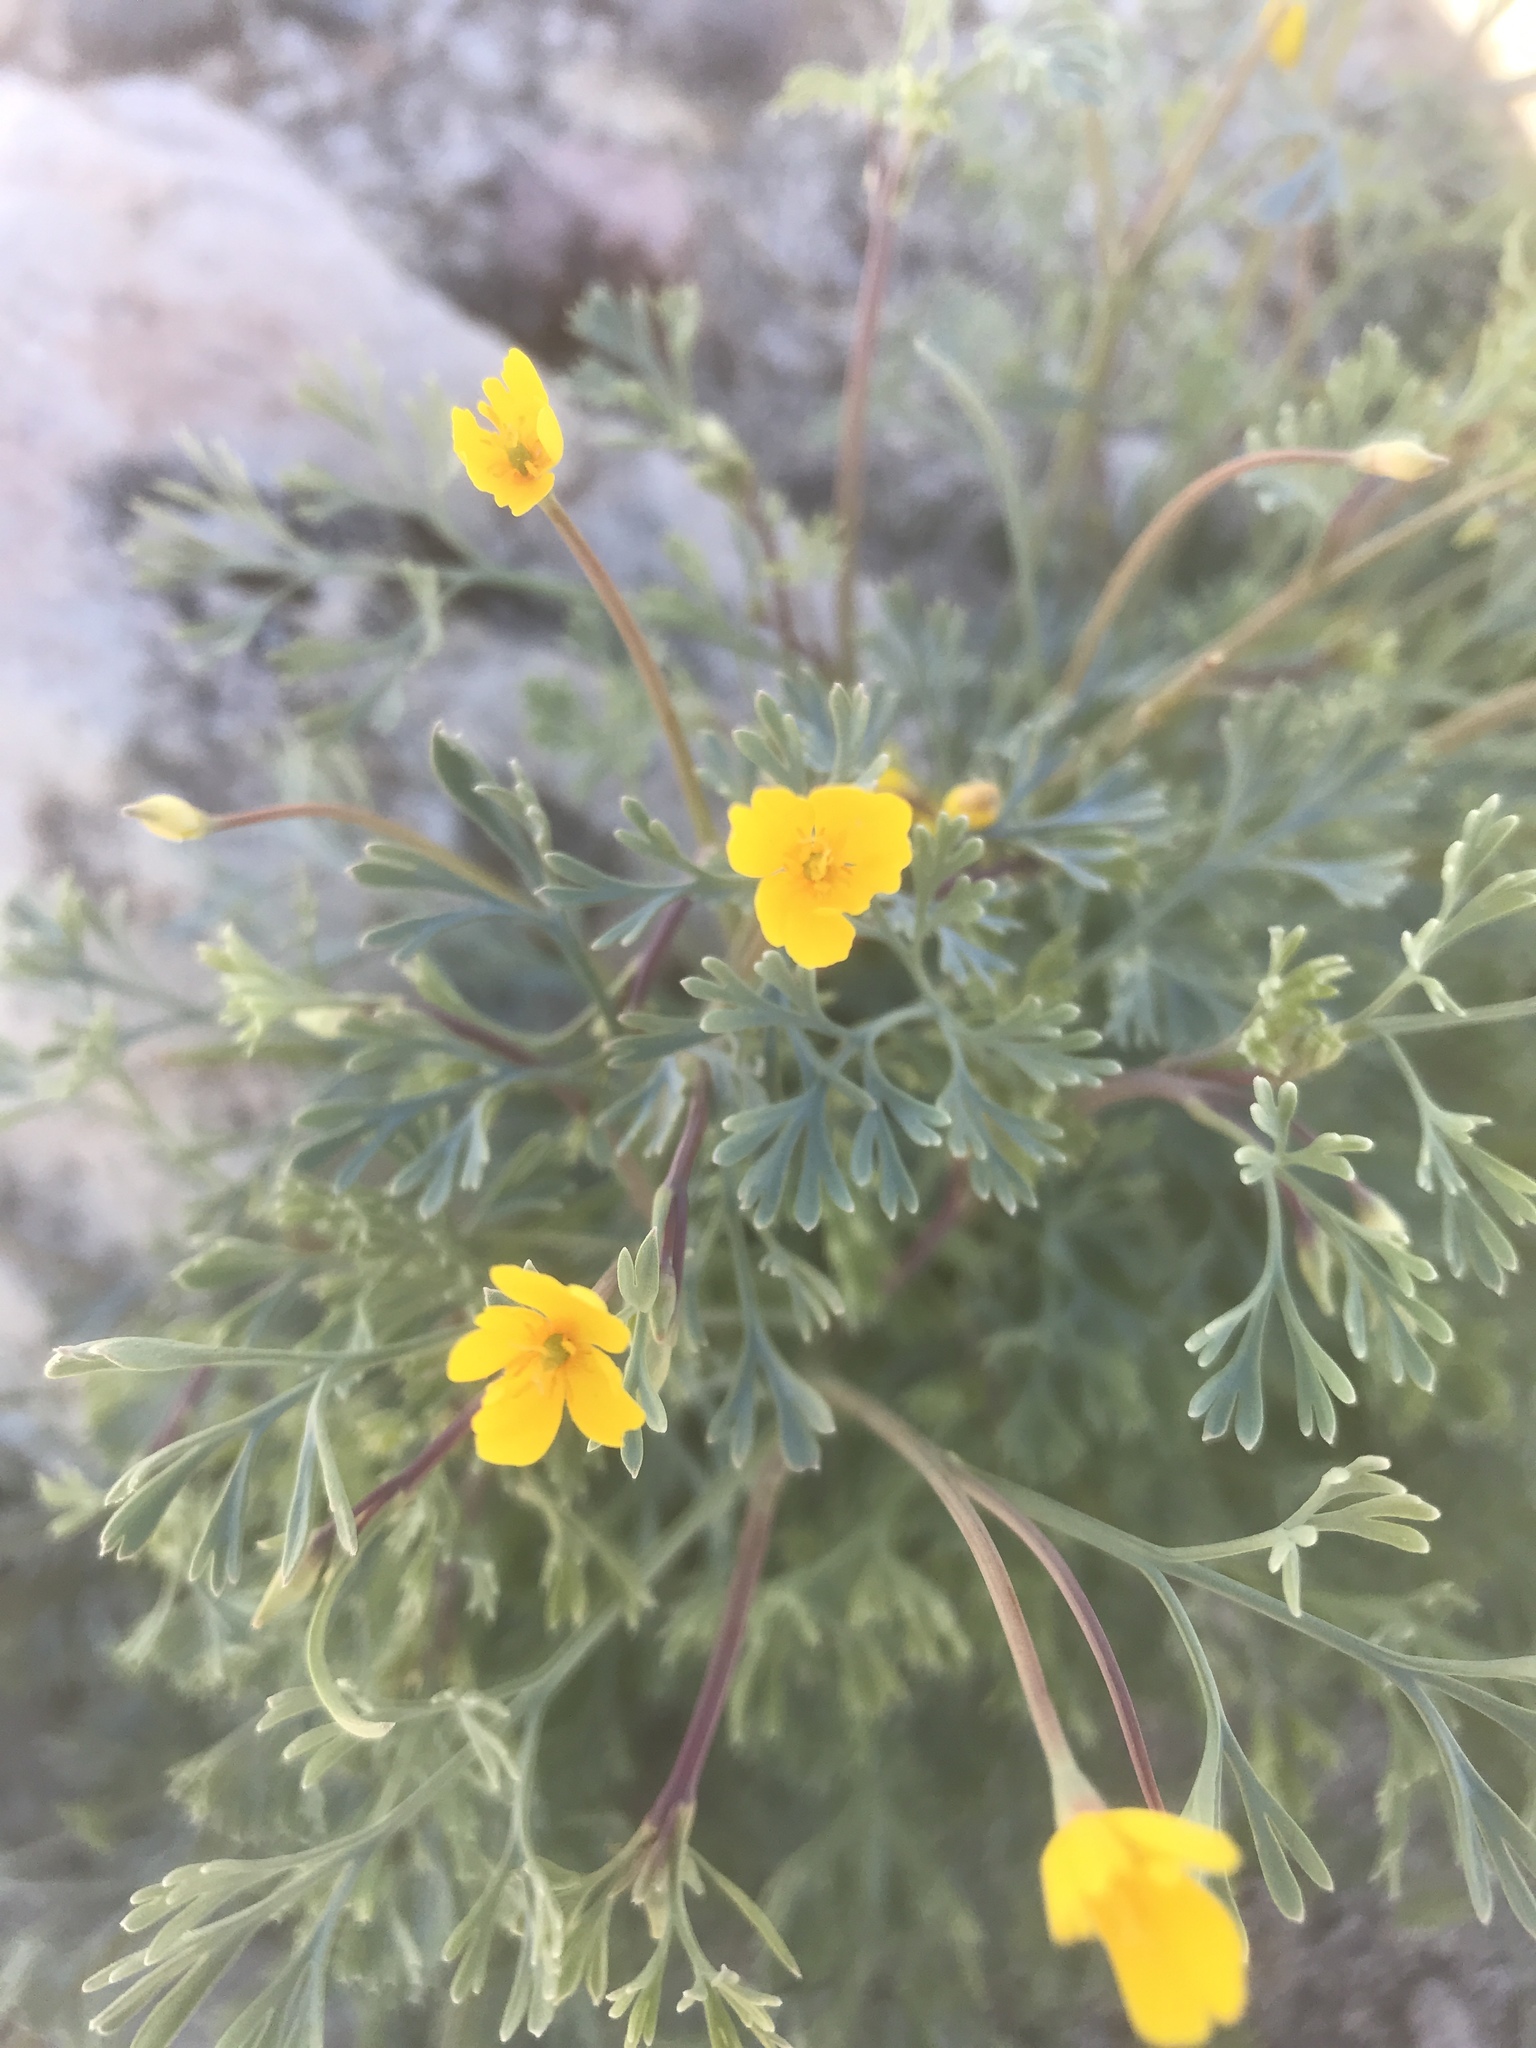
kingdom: Plantae
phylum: Tracheophyta
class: Magnoliopsida
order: Ranunculales
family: Papaveraceae
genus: Eschscholzia
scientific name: Eschscholzia minutiflora
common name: Small-flower california-poppy
